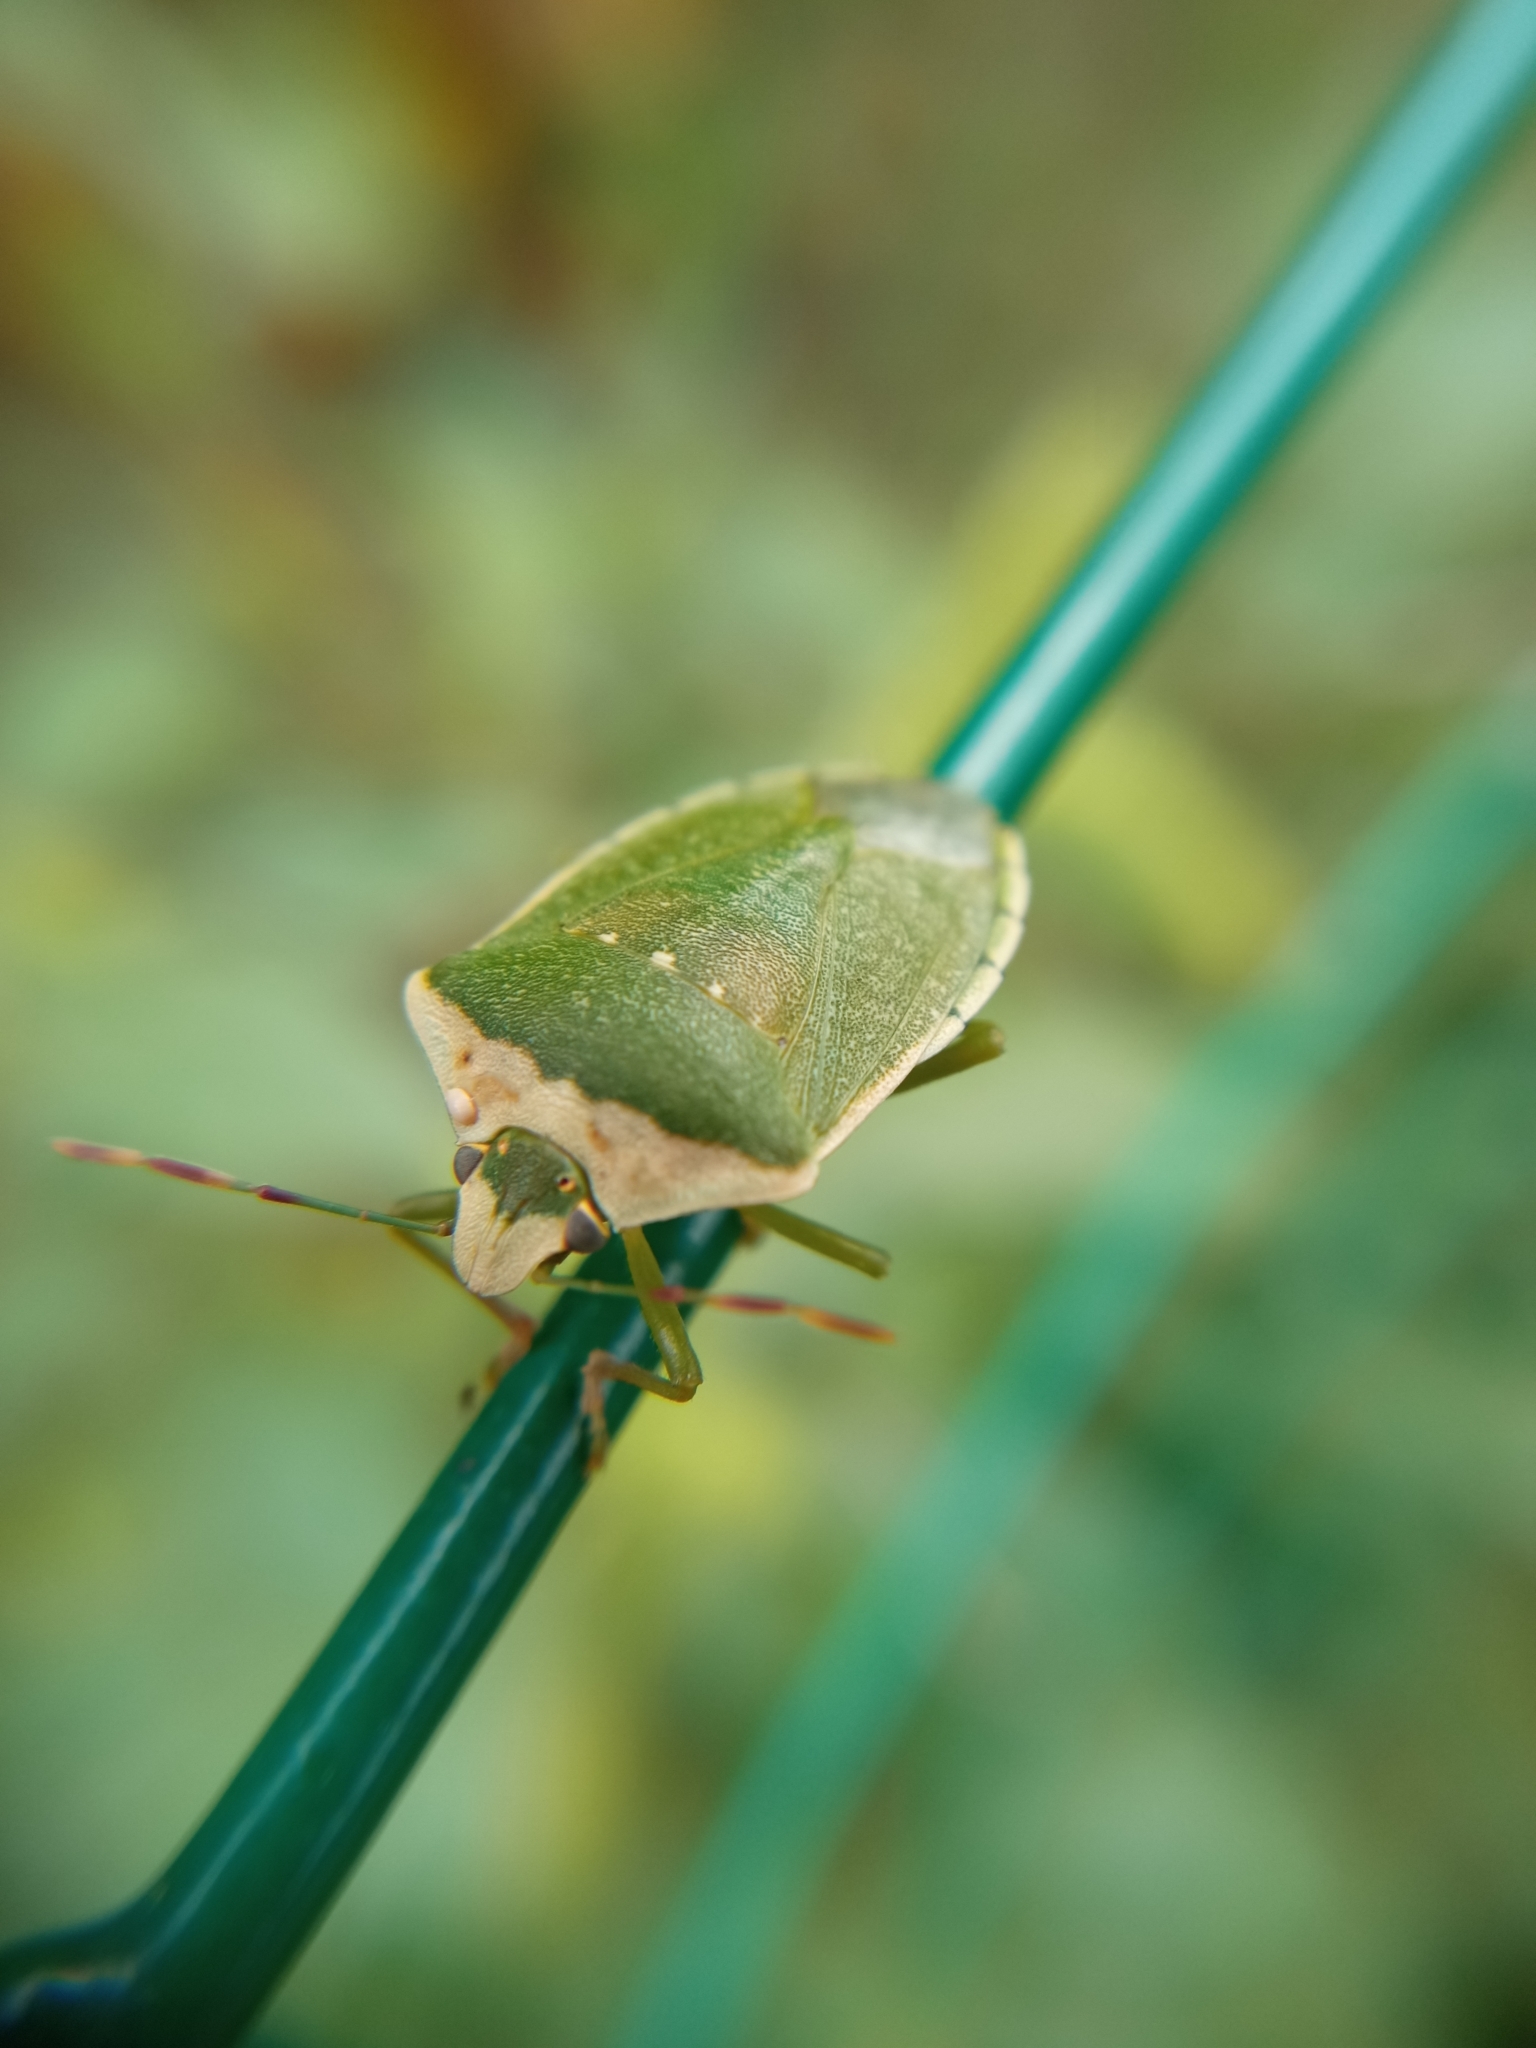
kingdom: Animalia
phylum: Arthropoda
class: Insecta
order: Hemiptera
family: Pentatomidae
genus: Nezara
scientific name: Nezara viridula
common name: Southern green stink bug
